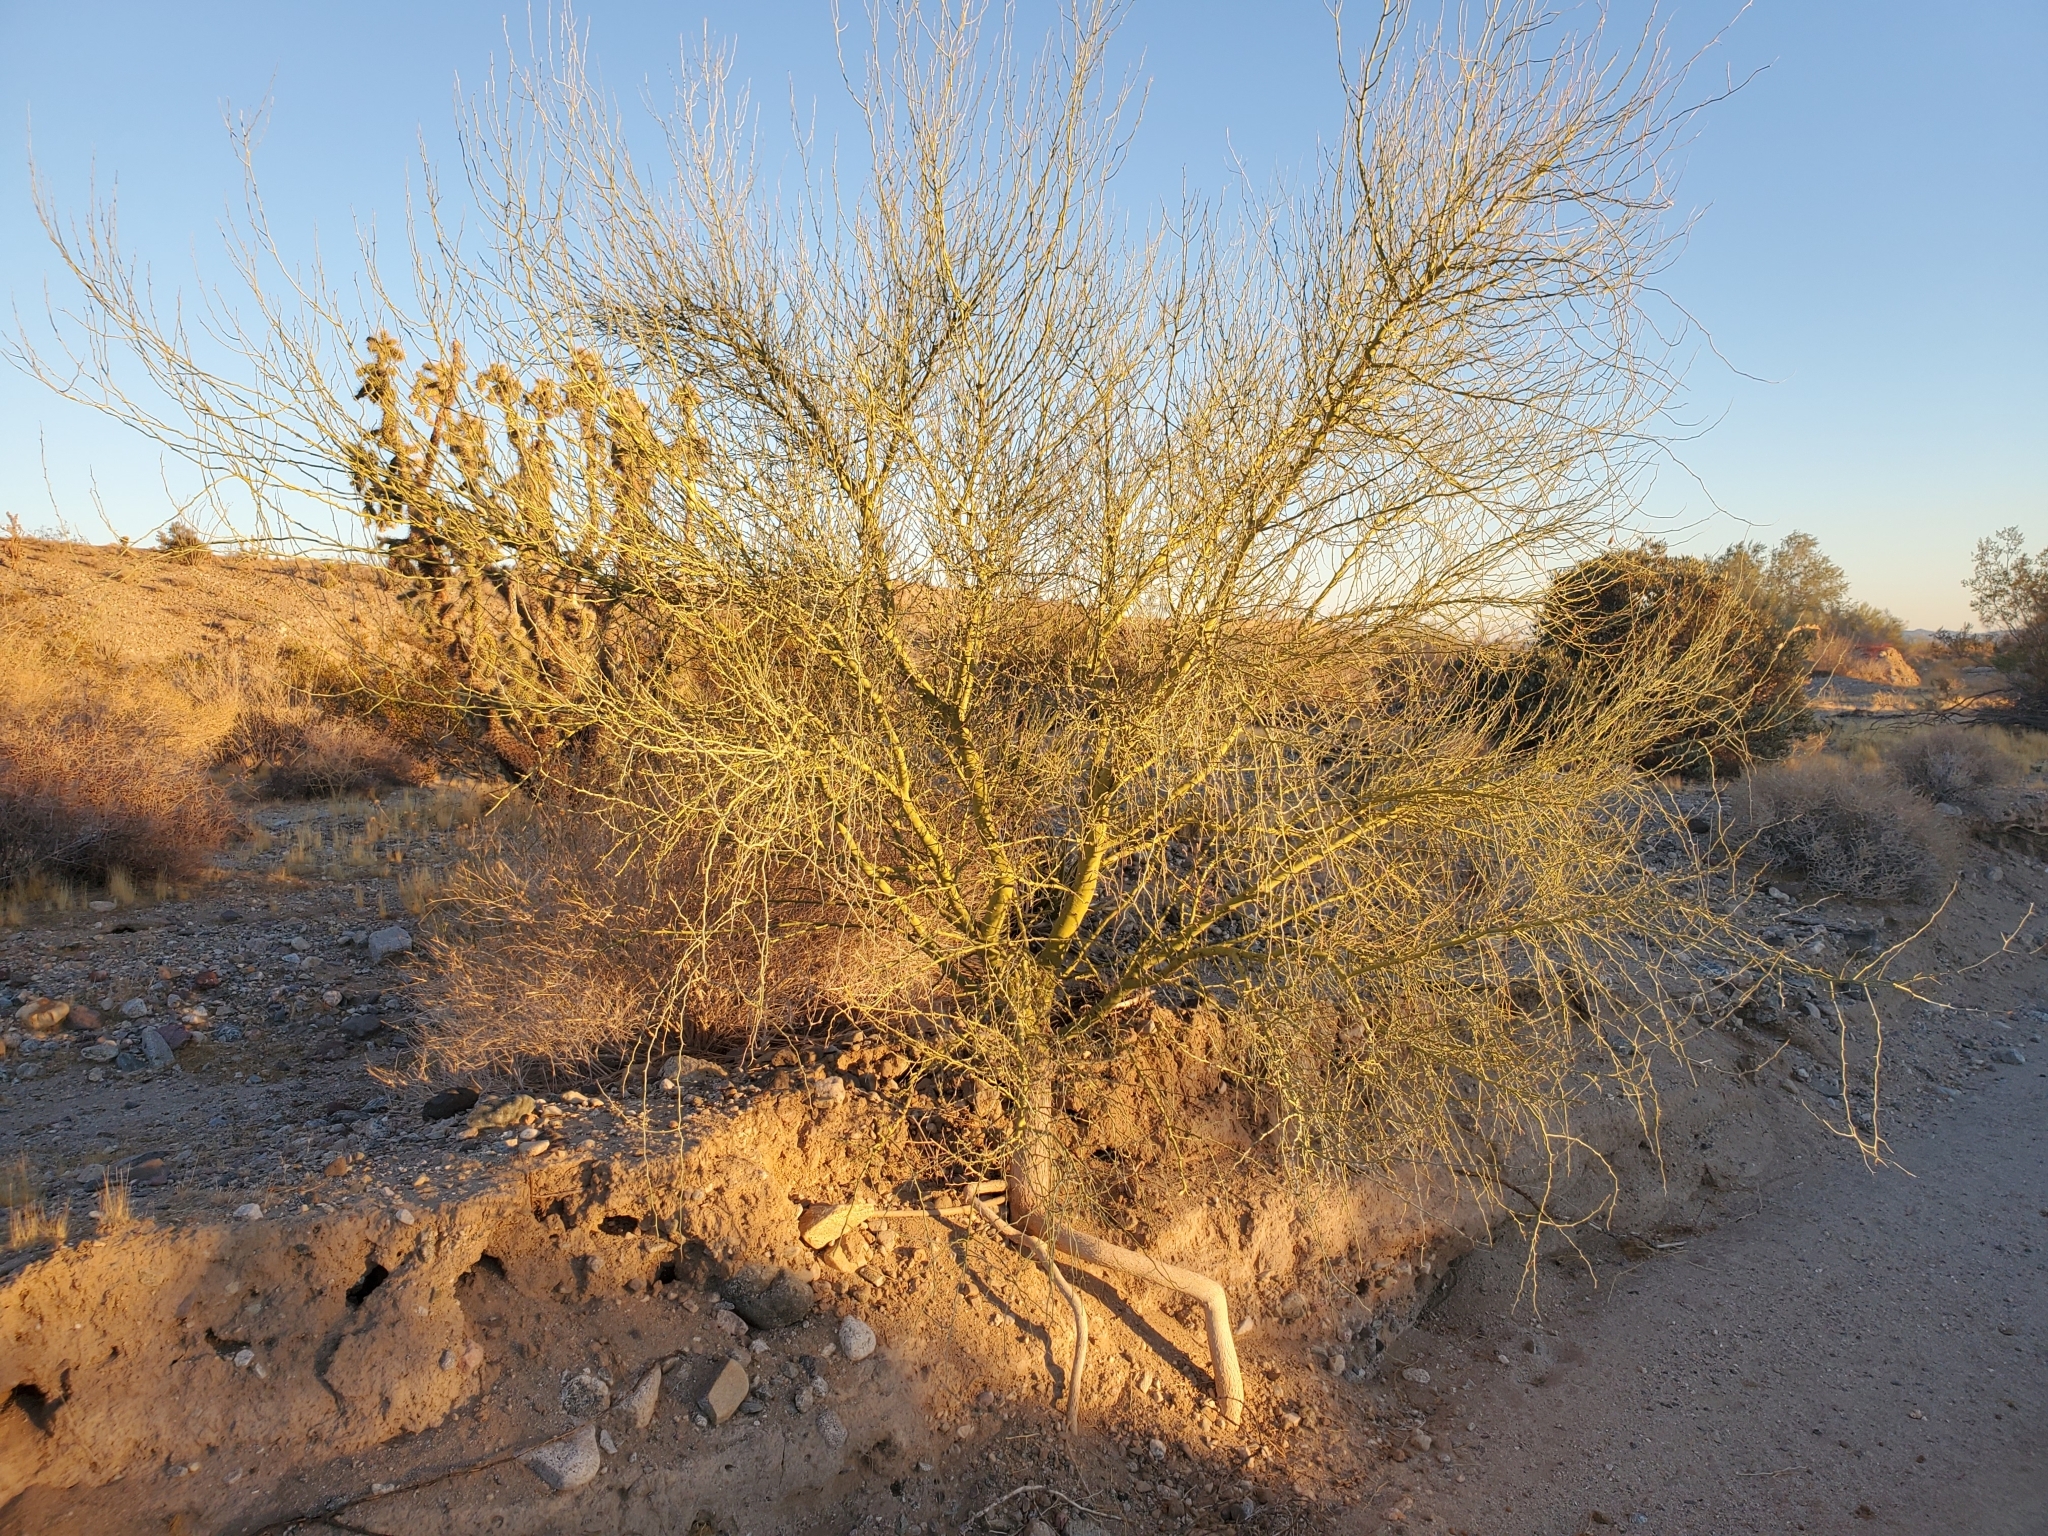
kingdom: Plantae
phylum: Tracheophyta
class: Magnoliopsida
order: Fabales
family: Fabaceae
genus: Parkinsonia
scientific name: Parkinsonia florida
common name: Blue paloverde
